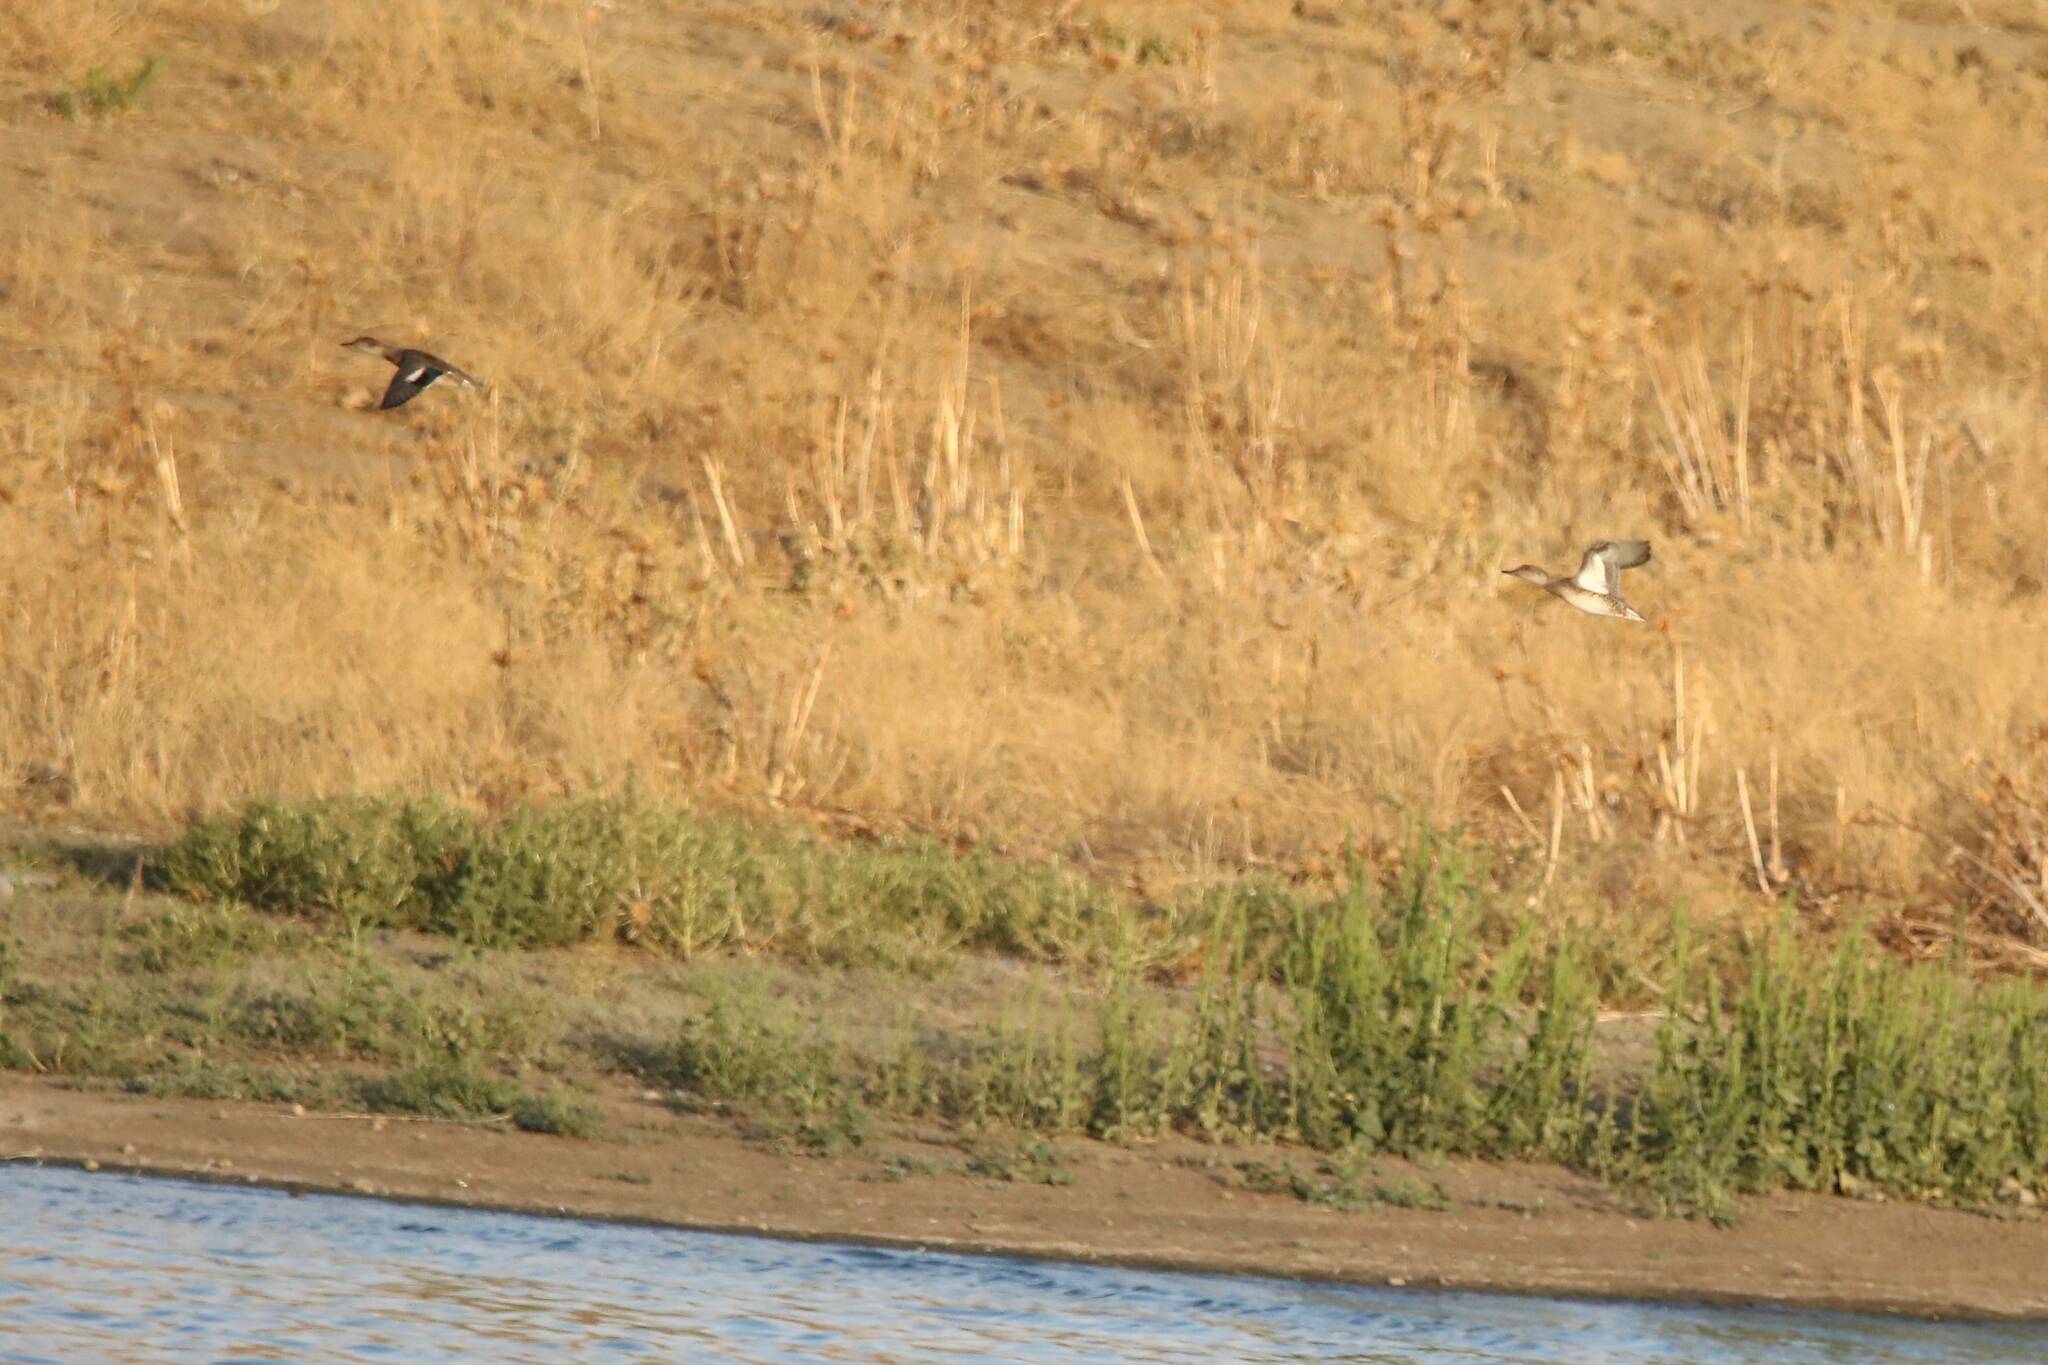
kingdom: Animalia
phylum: Chordata
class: Aves
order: Anseriformes
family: Anatidae
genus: Anas
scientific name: Anas crecca
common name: Eurasian teal
